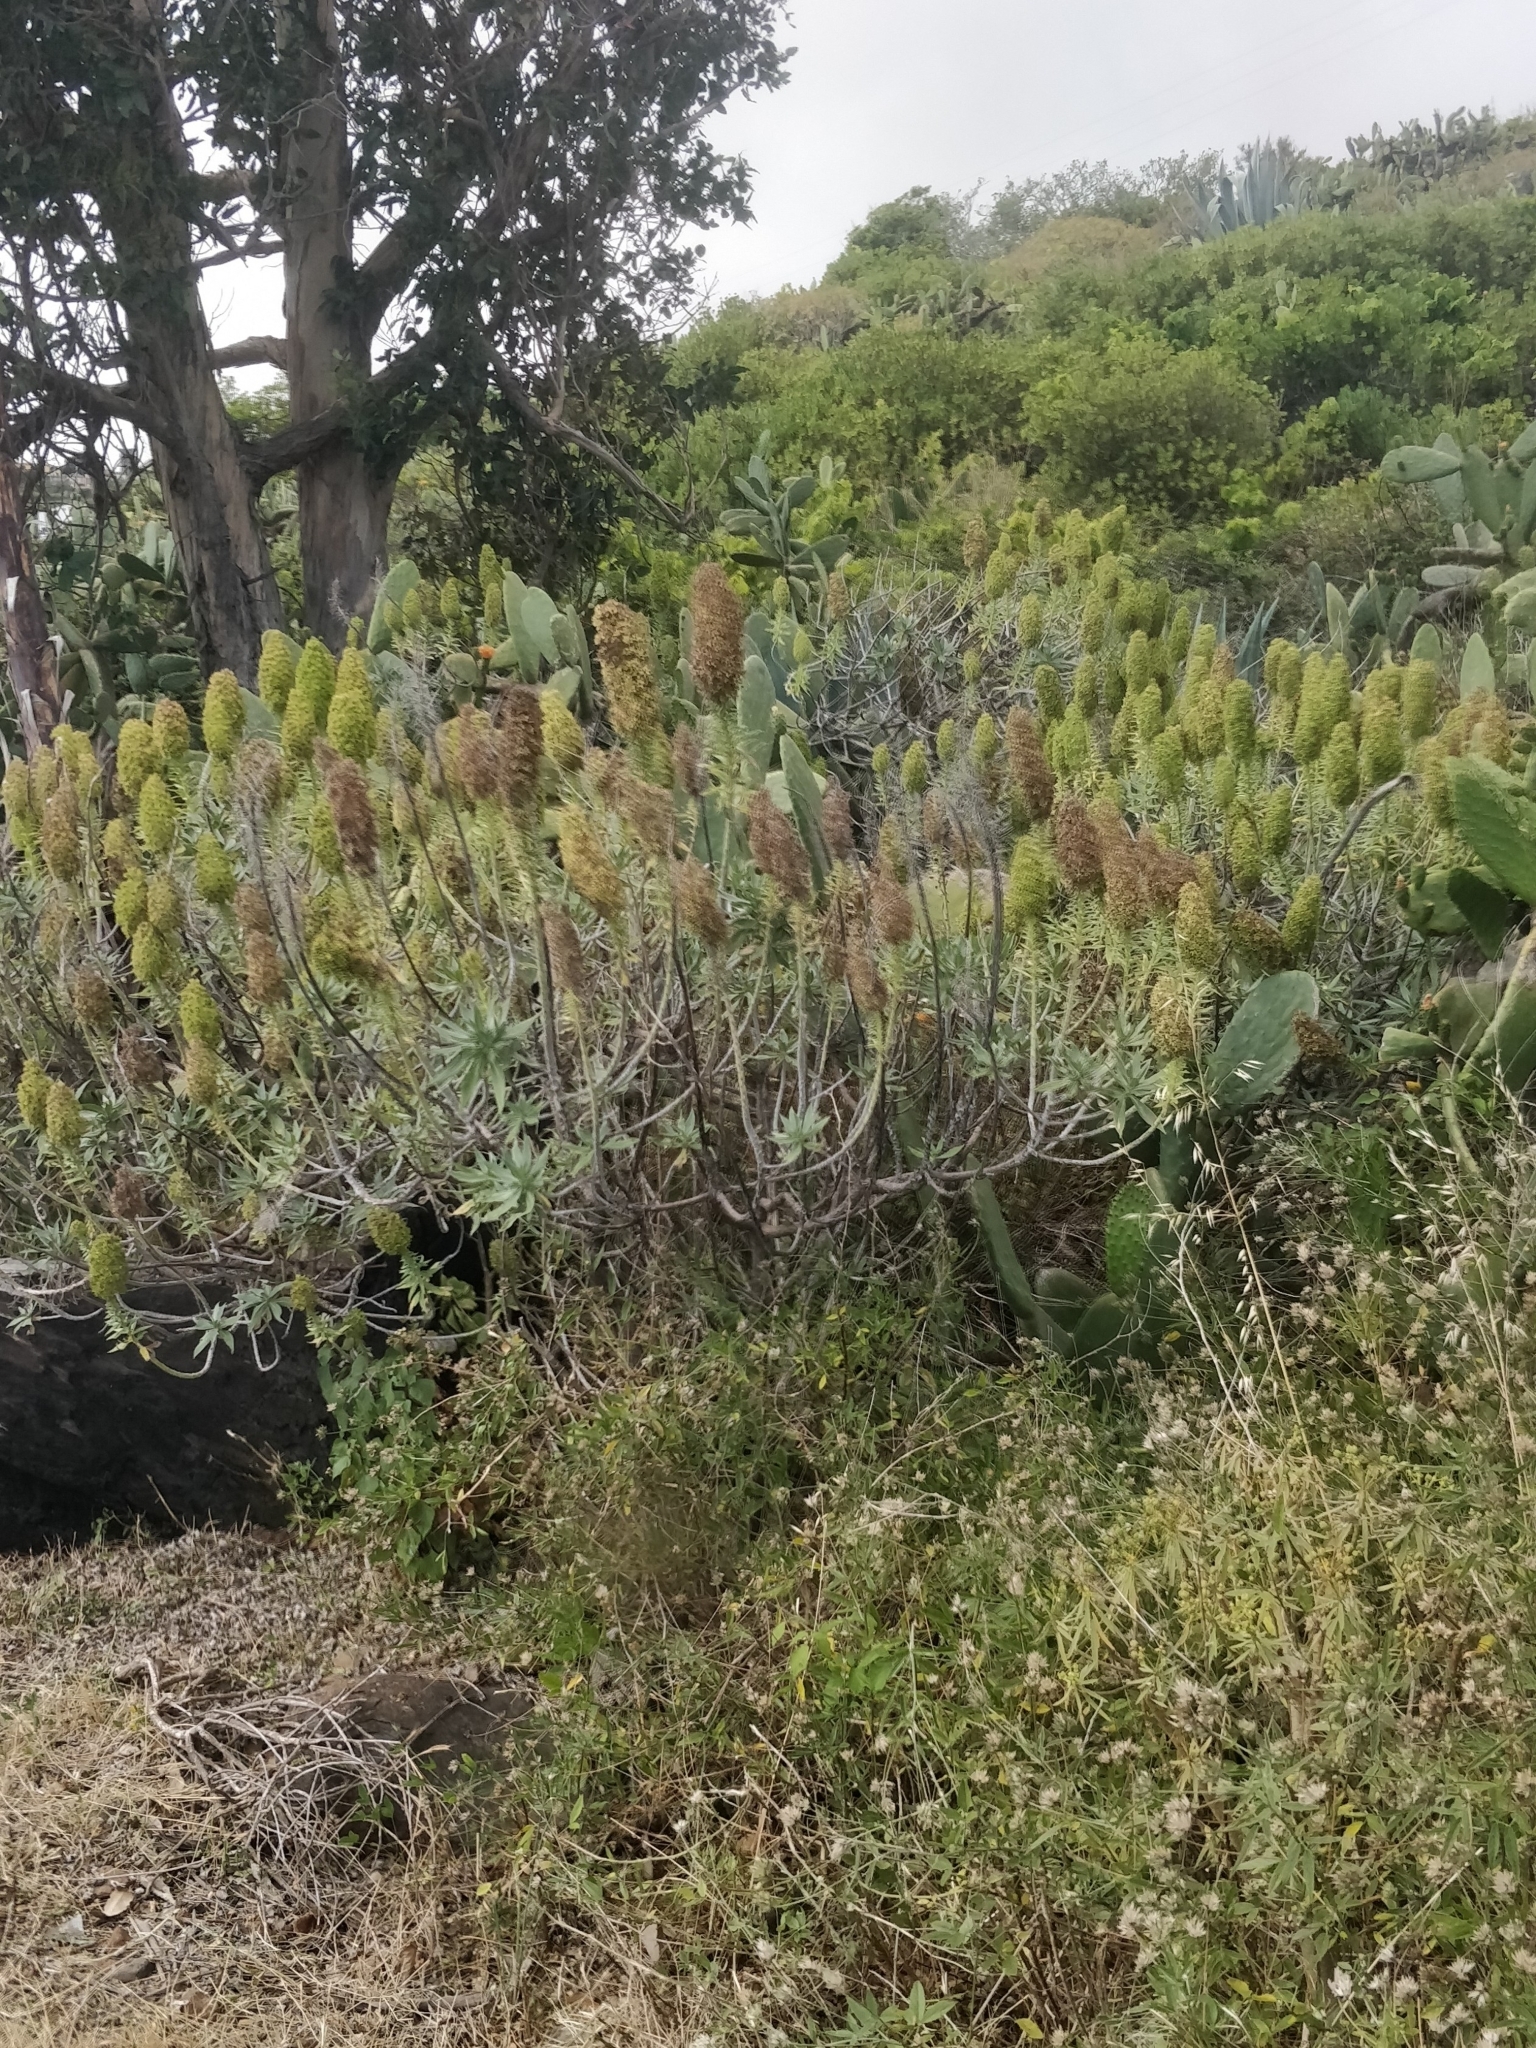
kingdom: Plantae
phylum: Tracheophyta
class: Magnoliopsida
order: Boraginales
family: Boraginaceae
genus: Echium
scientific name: Echium nervosum
